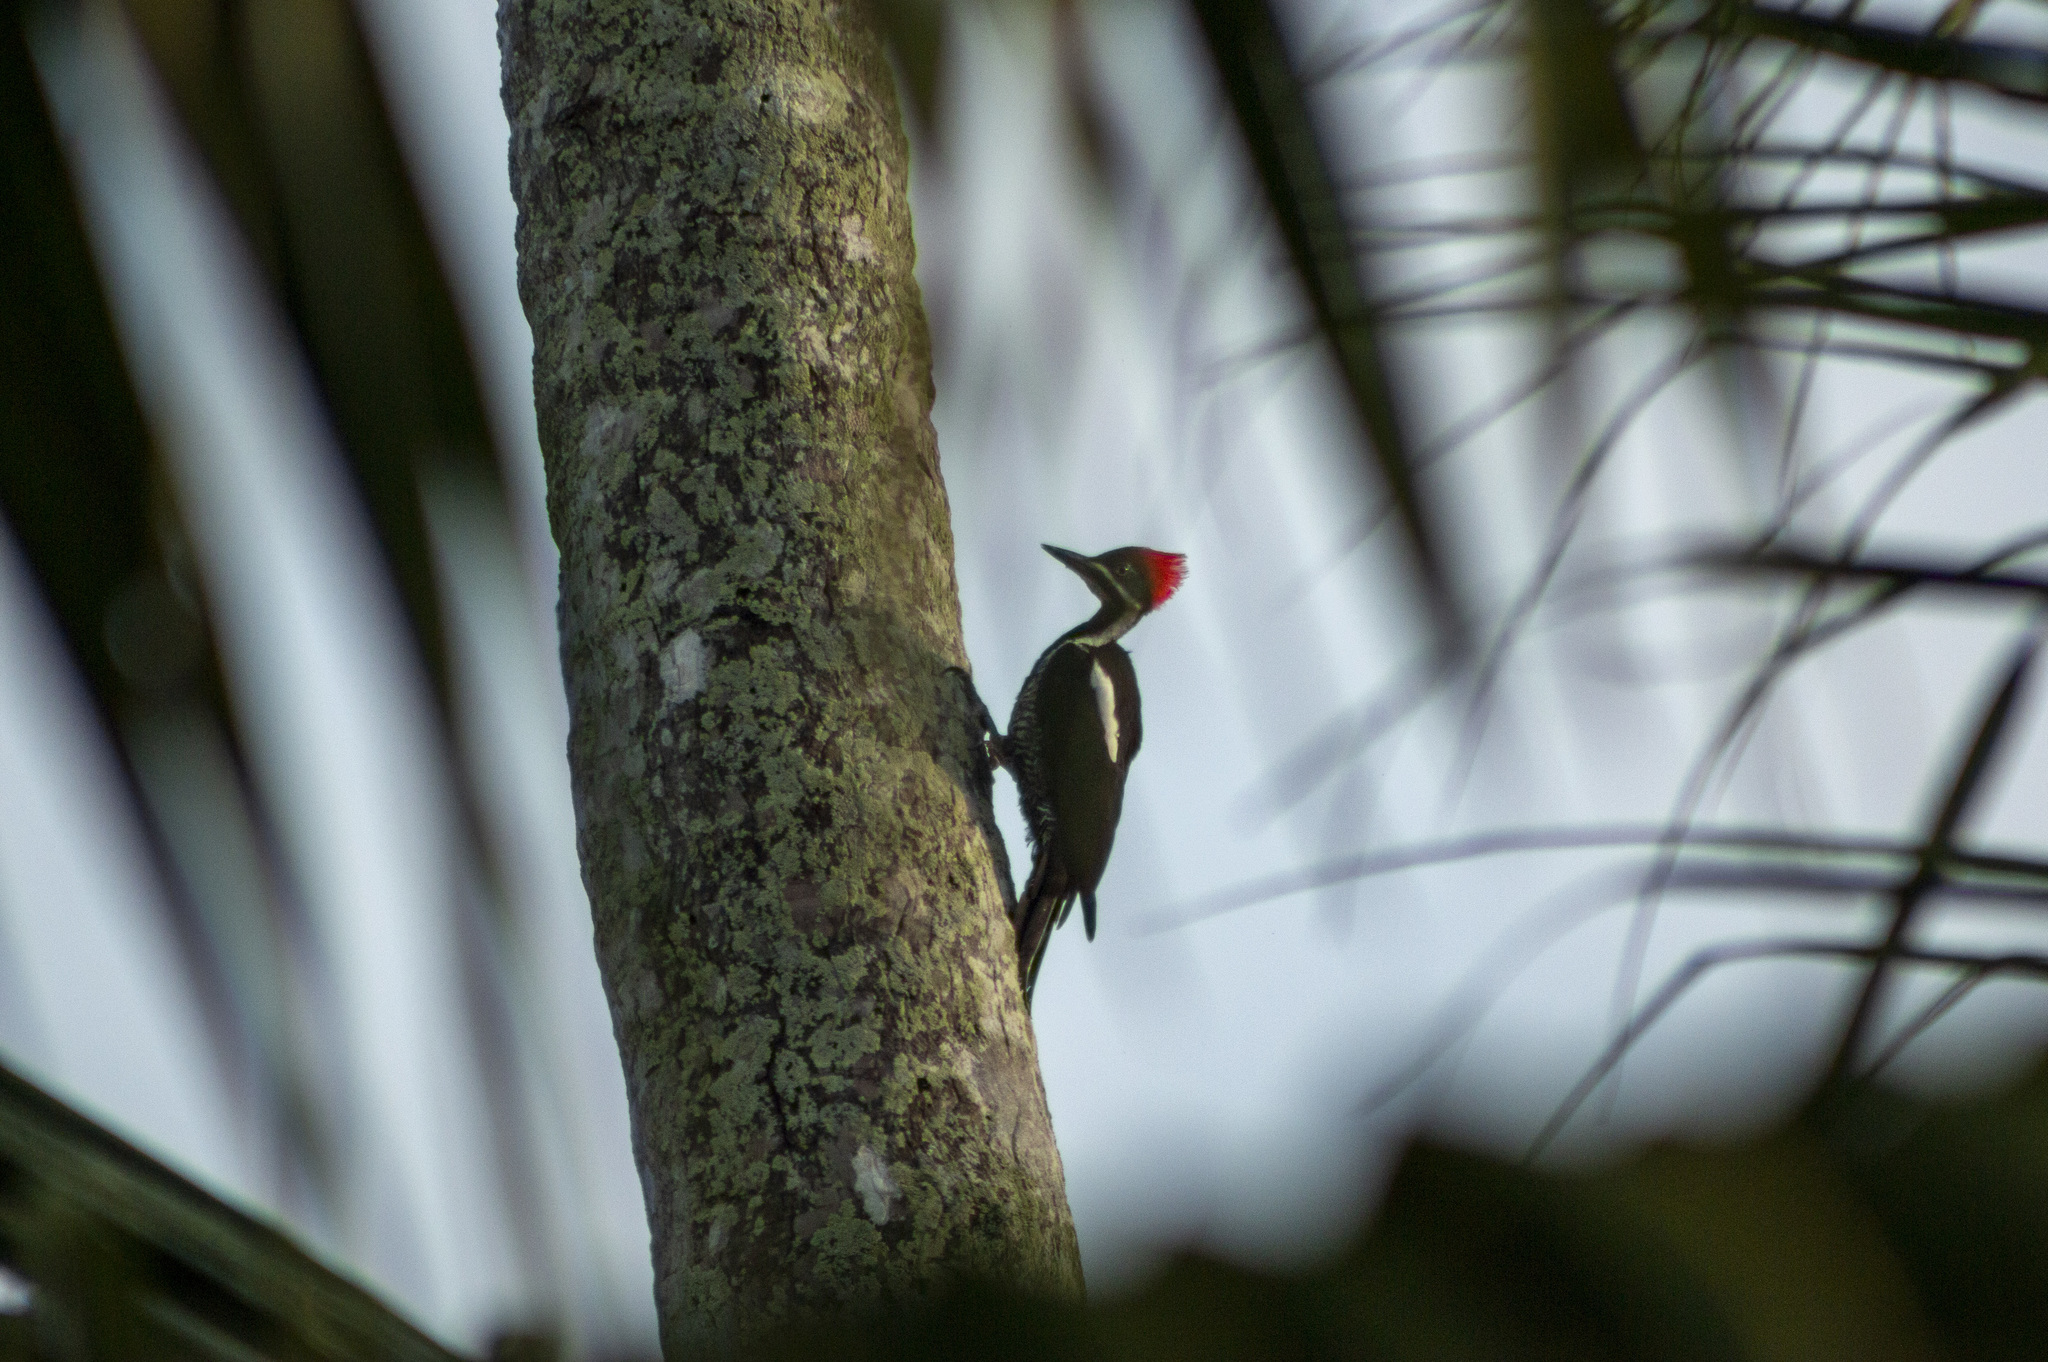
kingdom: Animalia
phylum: Chordata
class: Aves
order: Piciformes
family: Picidae
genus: Dryocopus
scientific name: Dryocopus lineatus
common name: Lineated woodpecker
